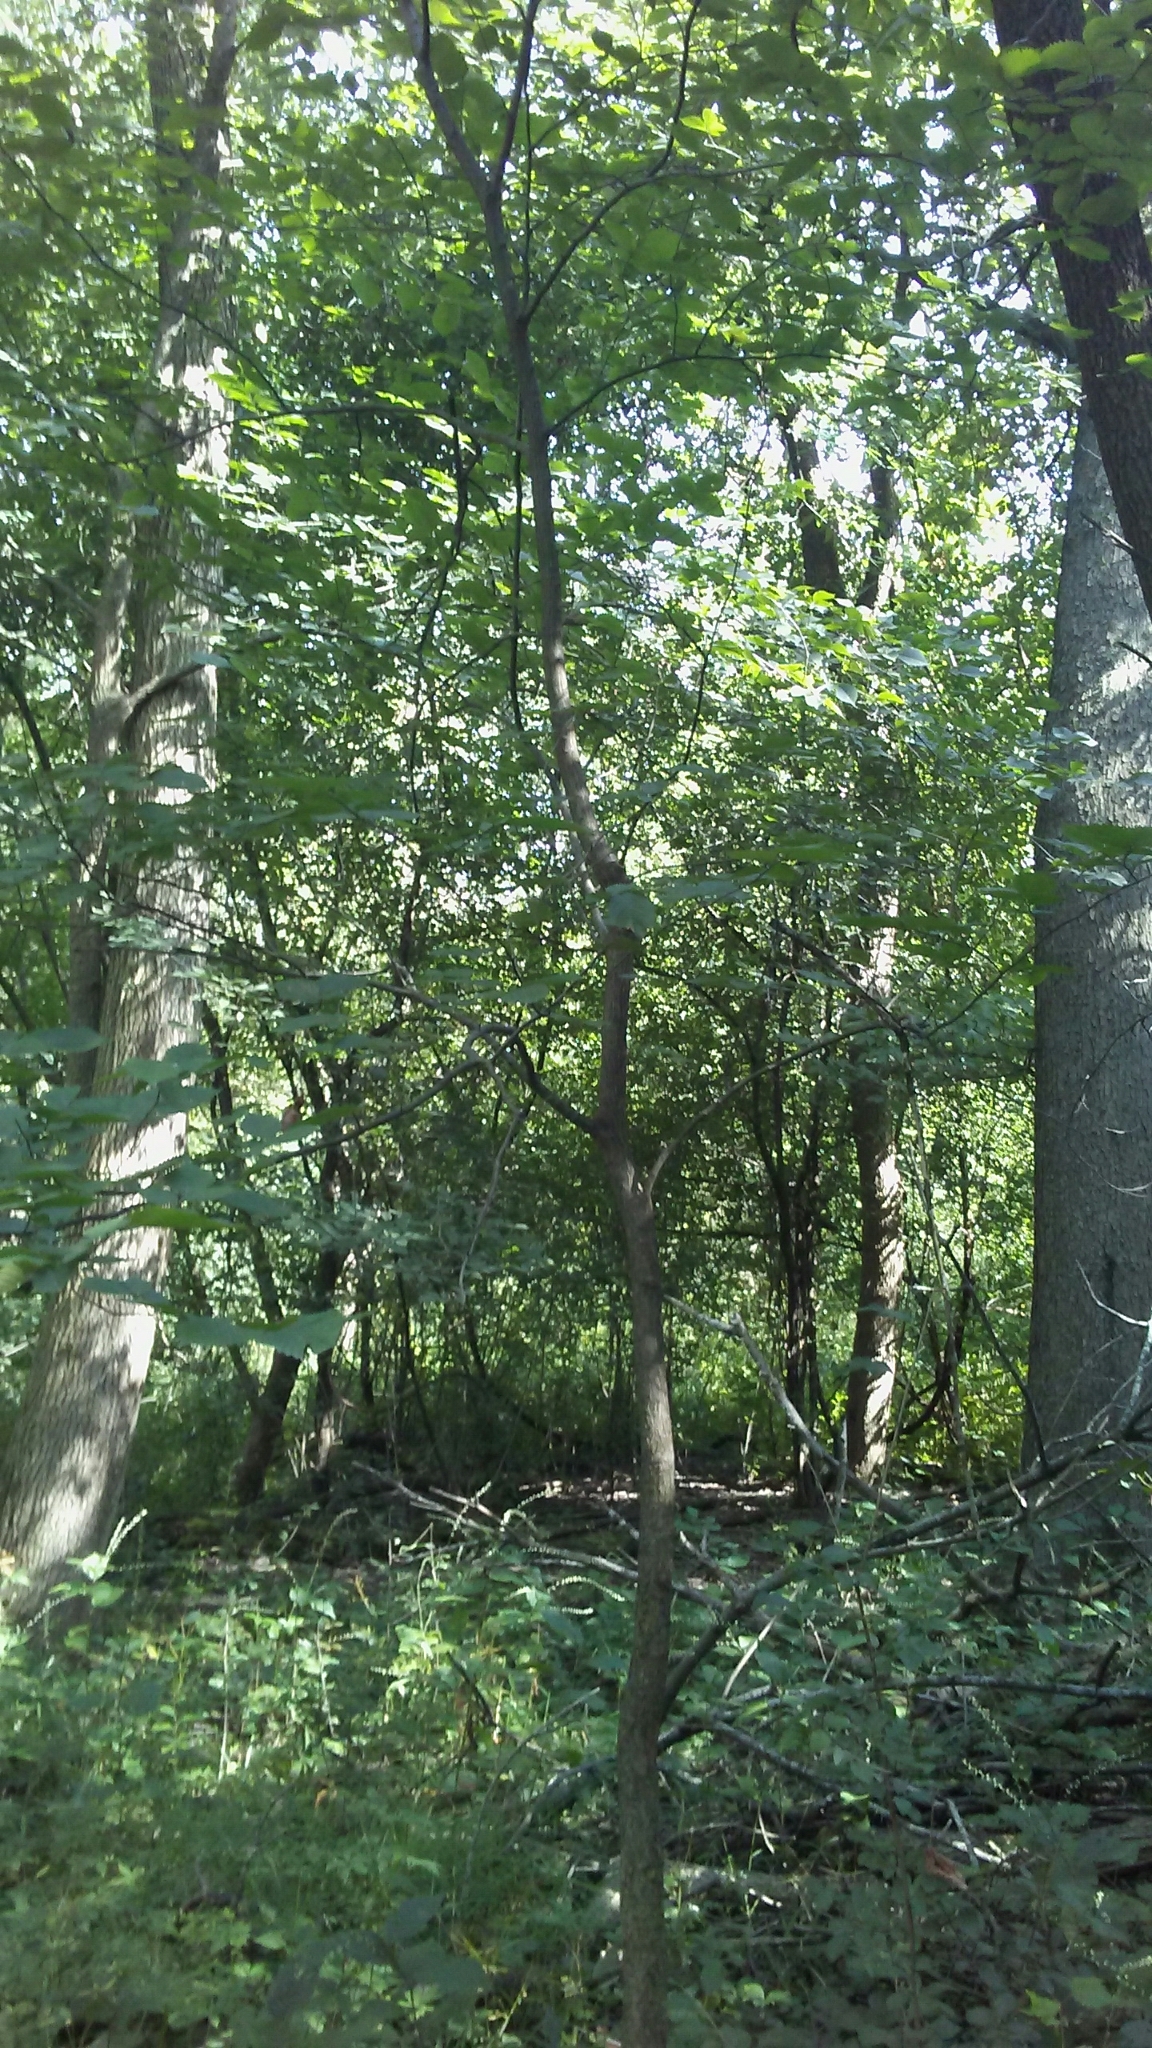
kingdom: Plantae
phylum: Tracheophyta
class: Magnoliopsida
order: Rosales
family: Ulmaceae
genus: Ulmus
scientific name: Ulmus rubra
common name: Slippery elm
